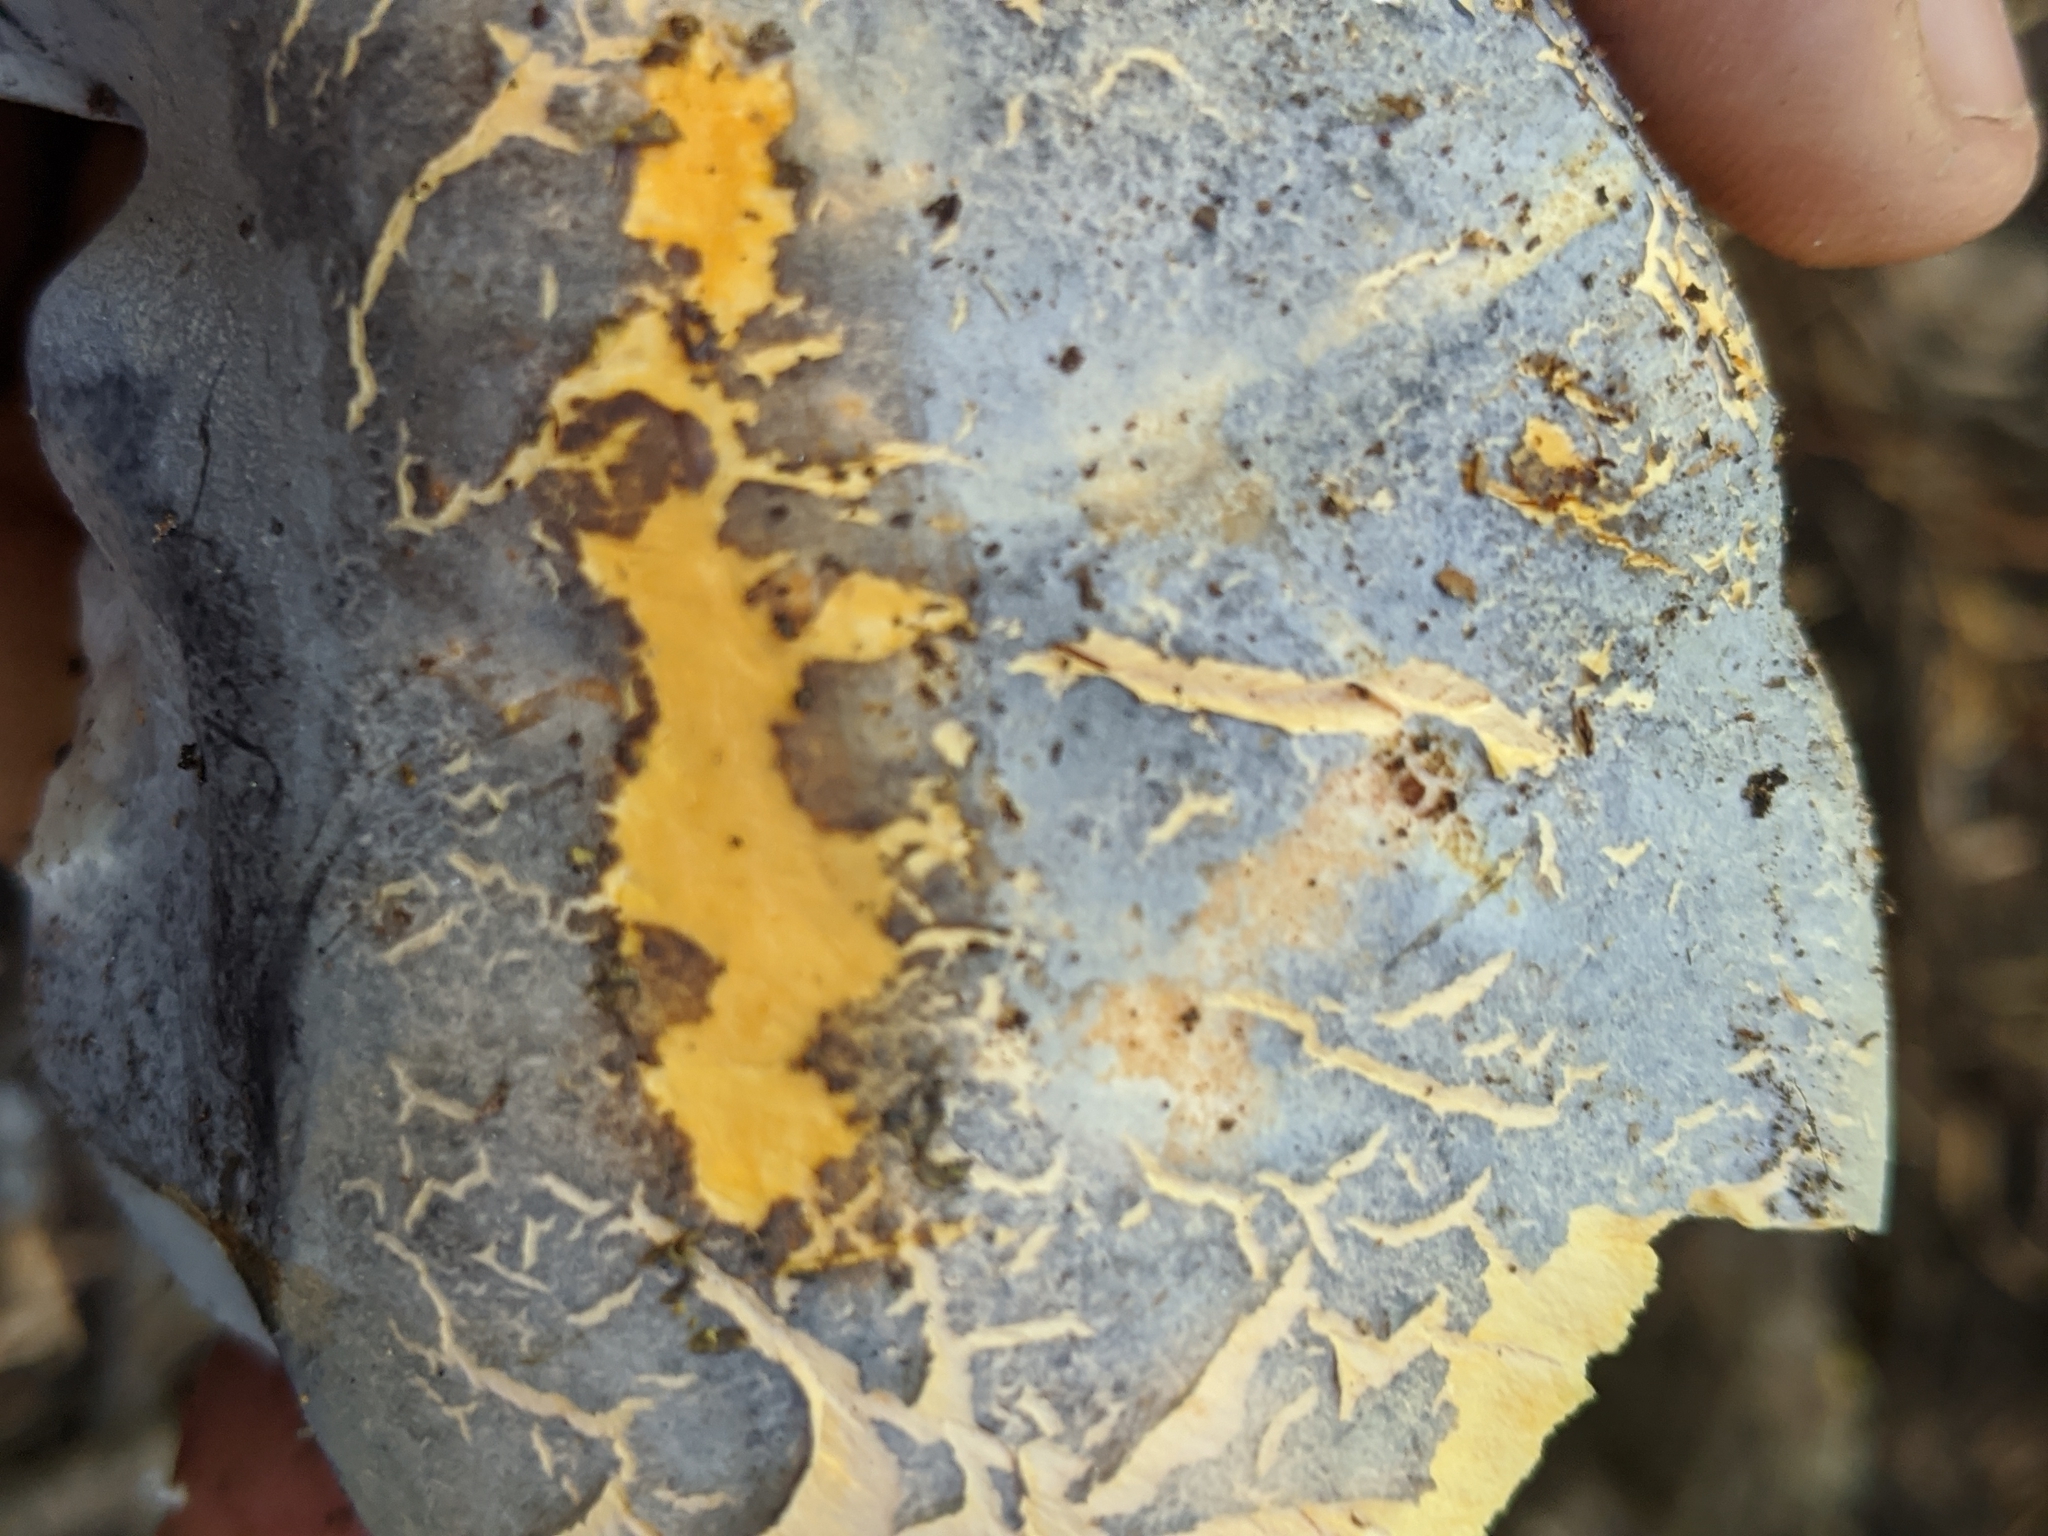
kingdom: Fungi
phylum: Basidiomycota
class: Agaricomycetes
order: Russulales
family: Albatrellaceae
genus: Albatrellopsis
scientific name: Albatrellopsis flettii
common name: Blue polypore
